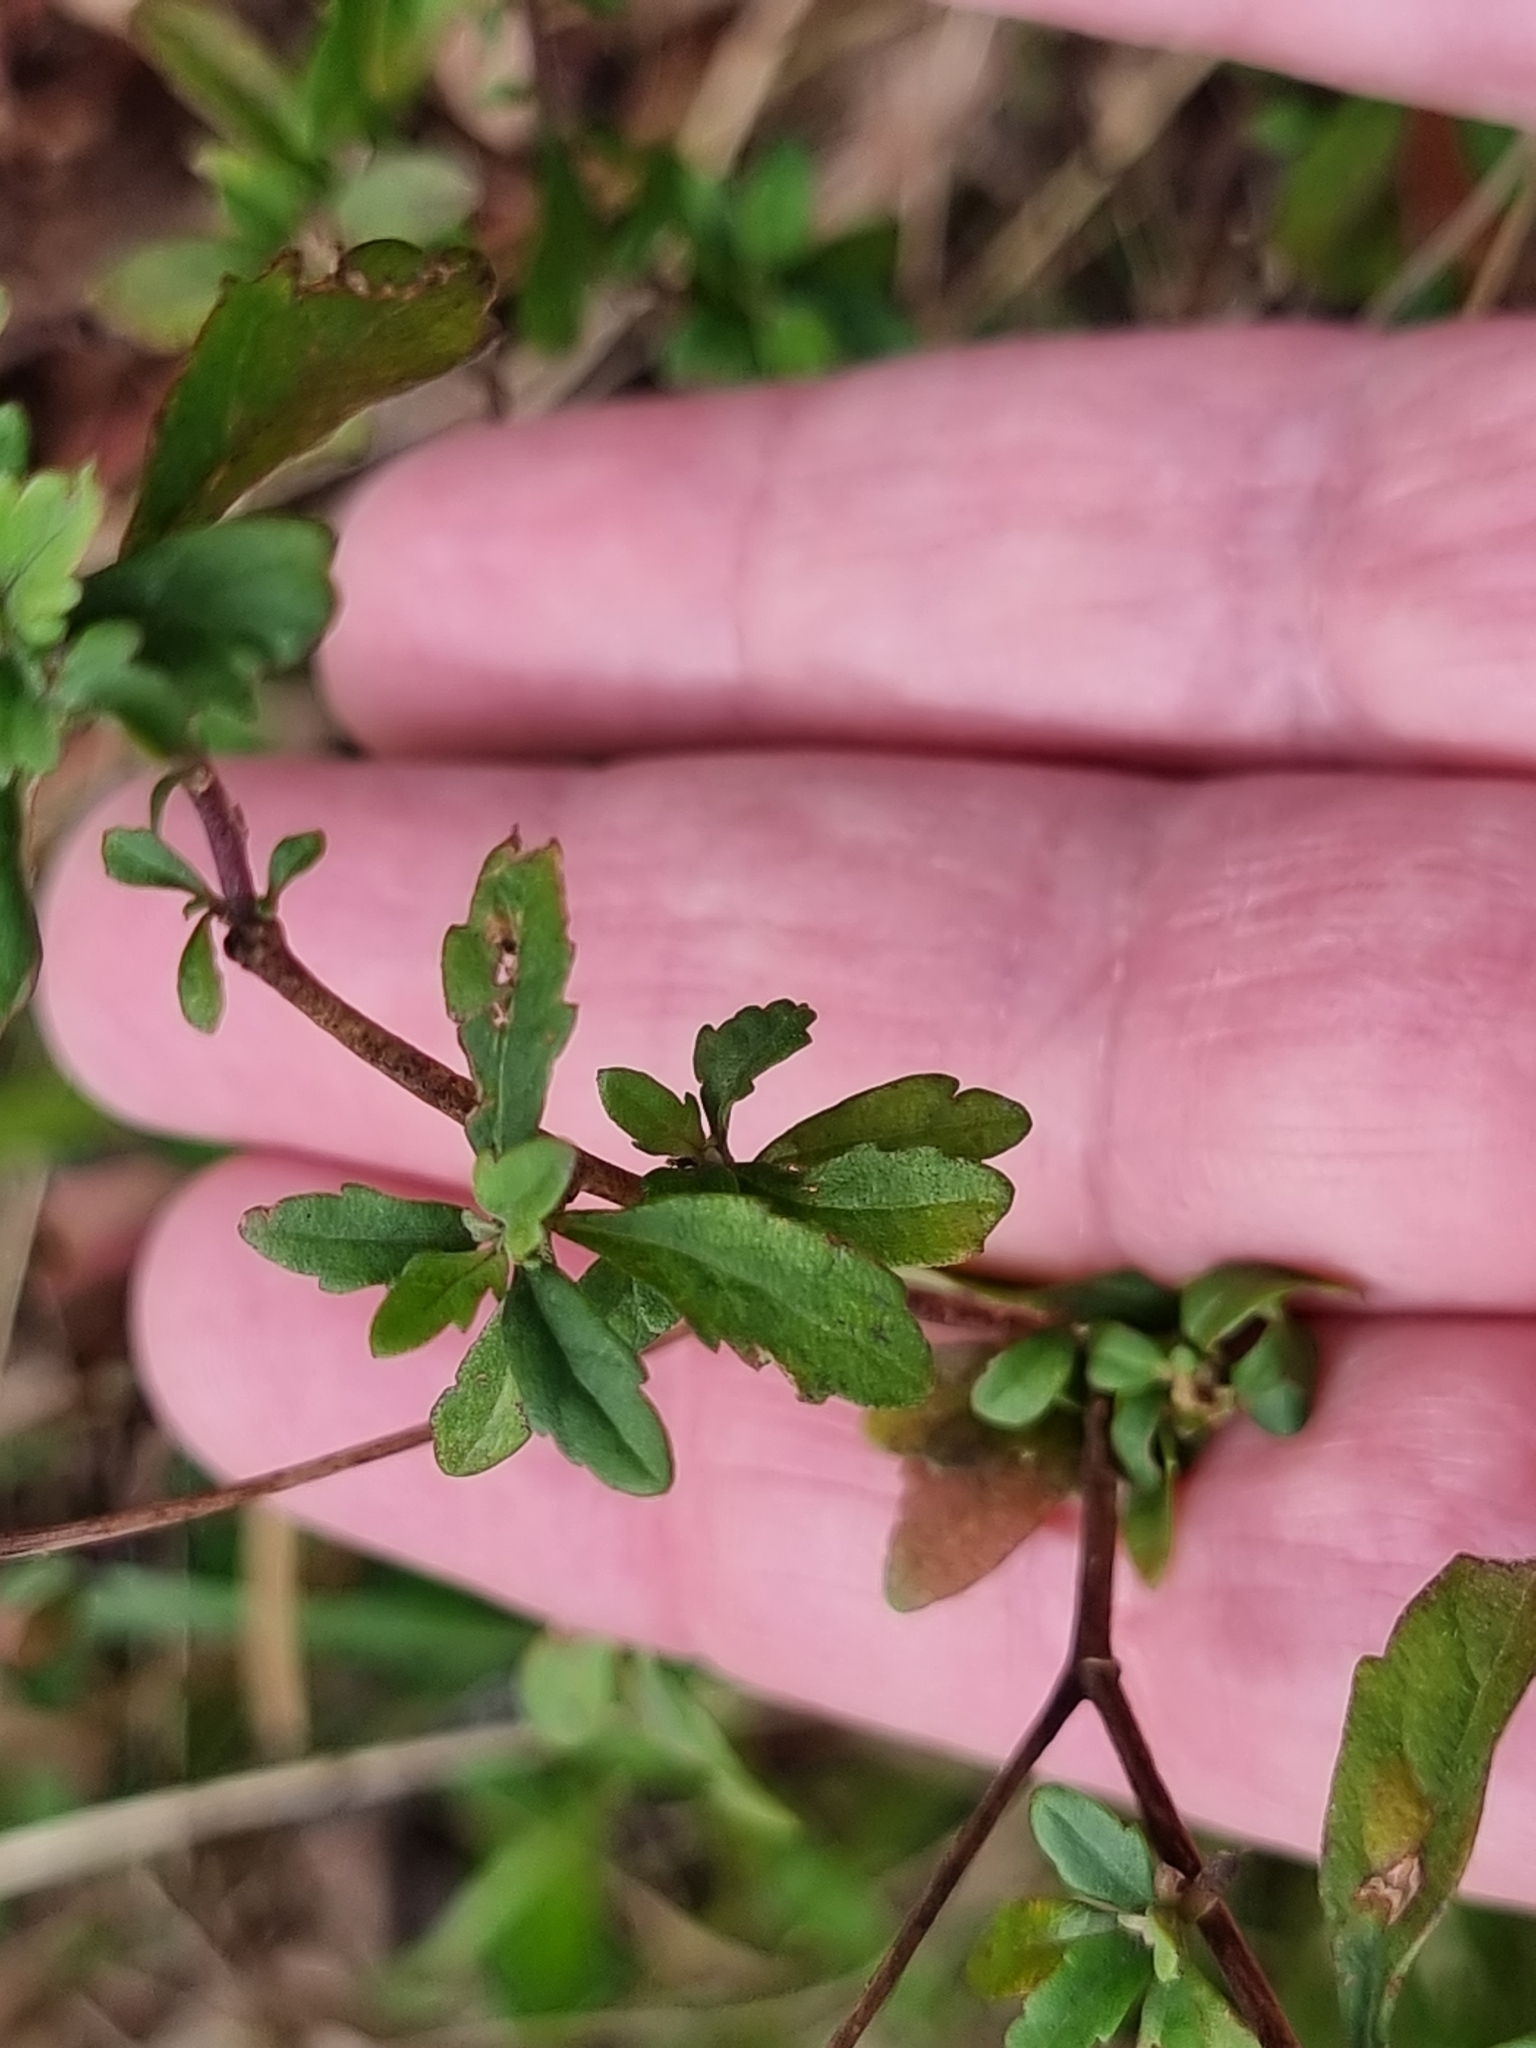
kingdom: Plantae
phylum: Tracheophyta
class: Magnoliopsida
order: Asterales
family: Asteraceae
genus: Centratherum
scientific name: Centratherum punctatum
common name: Larkdaisy
